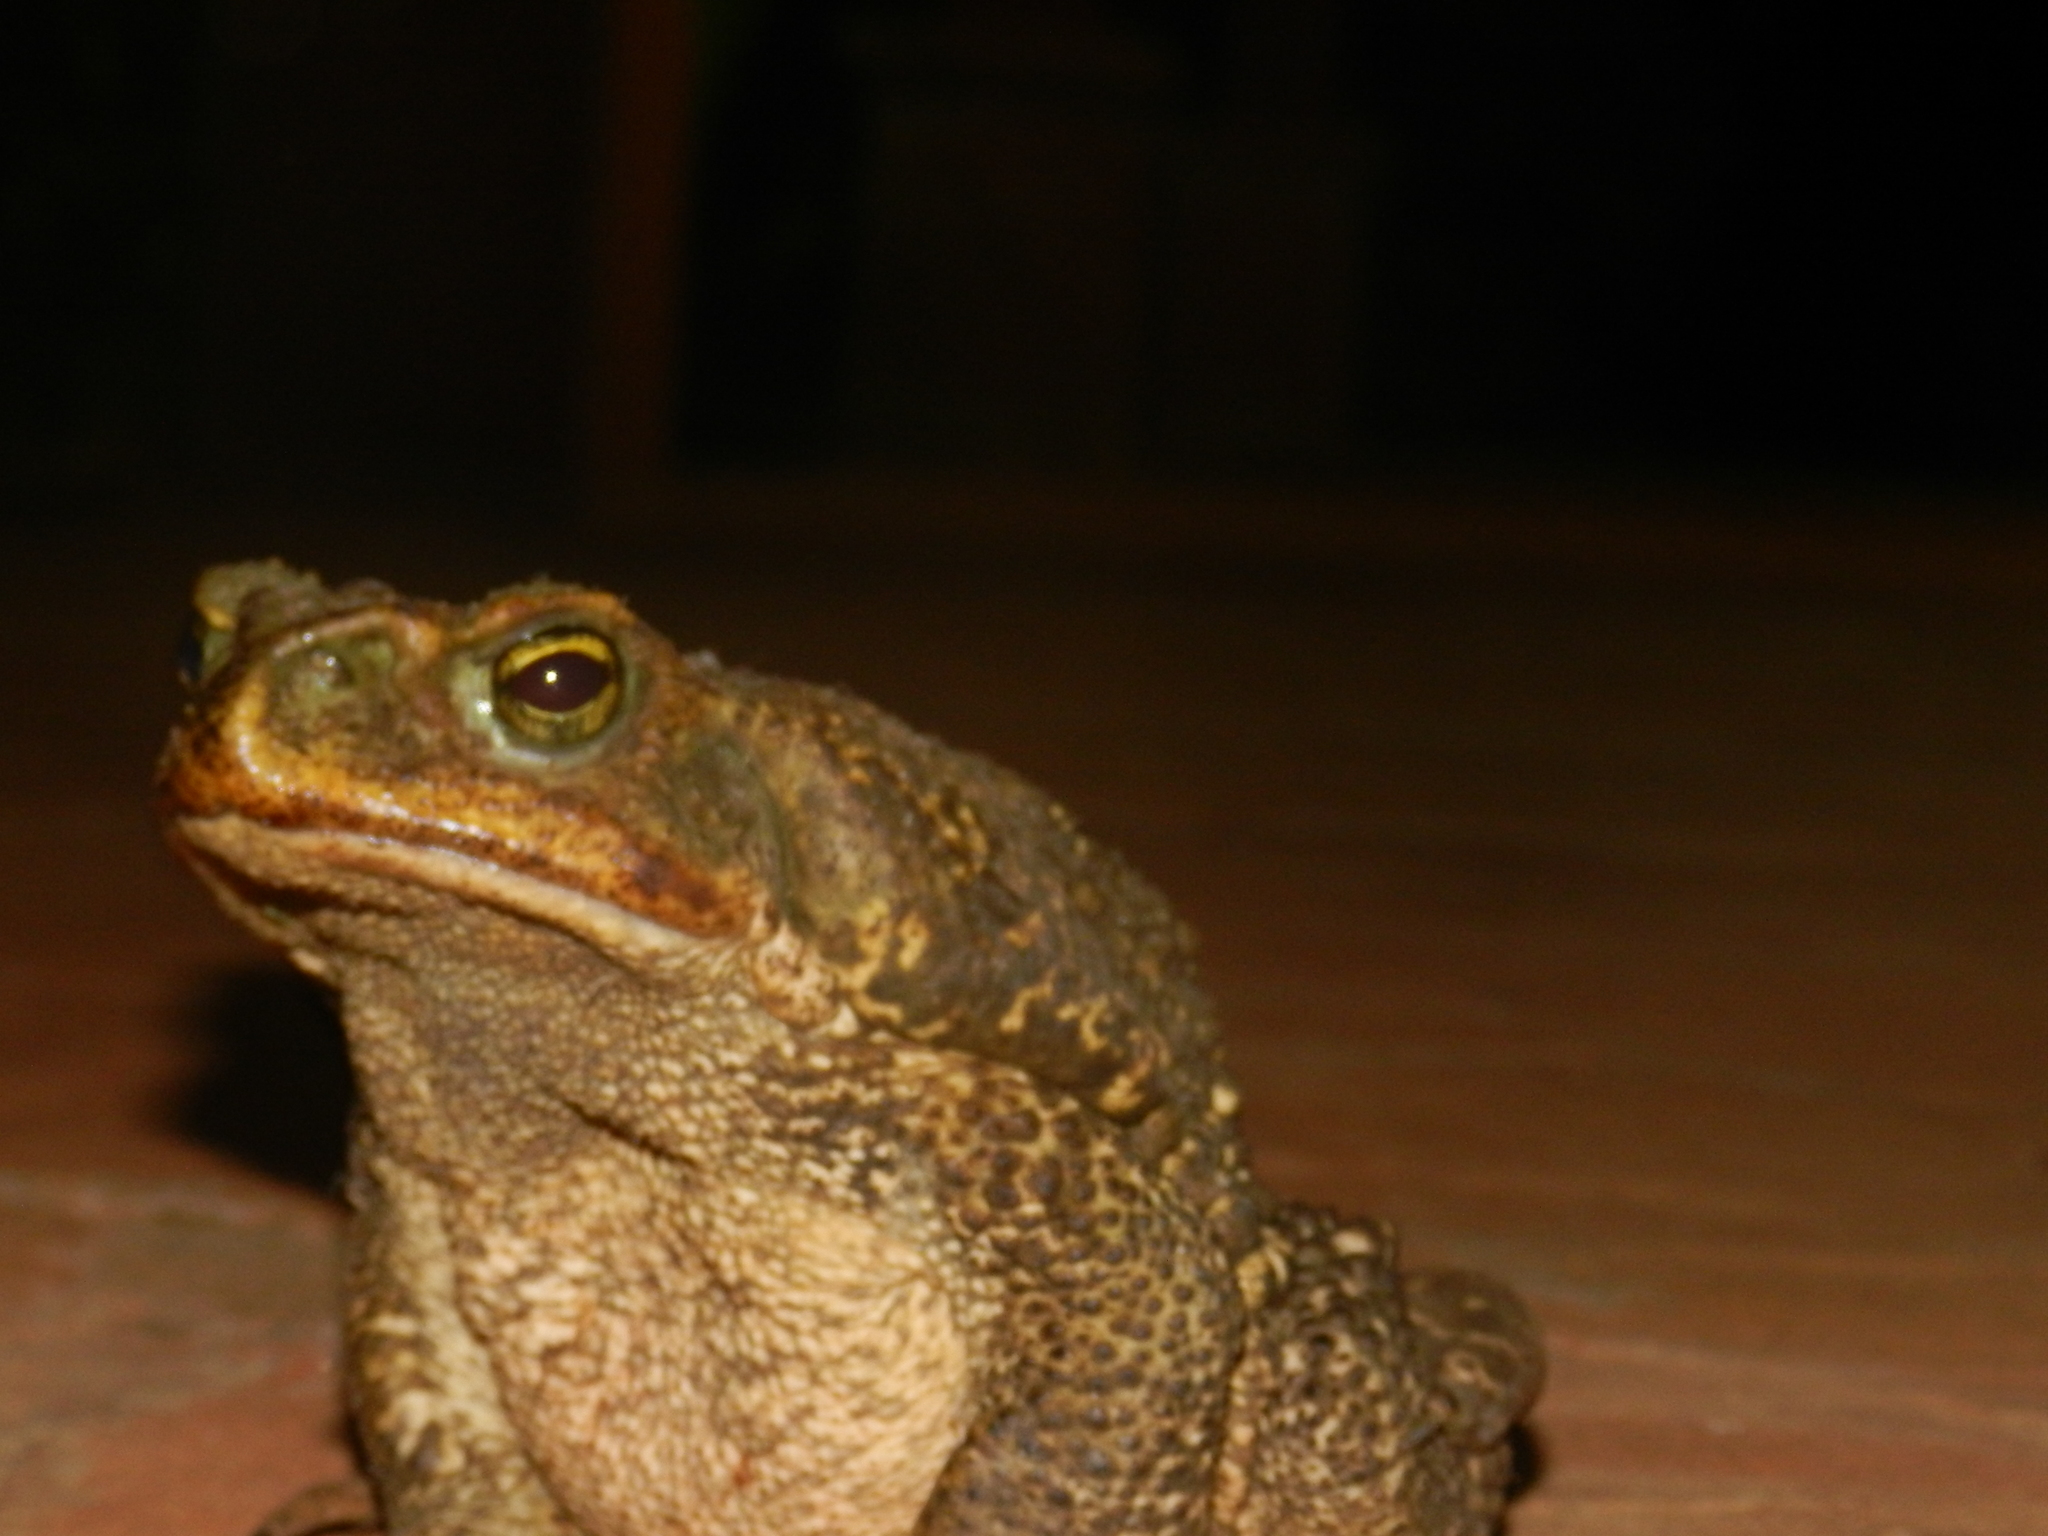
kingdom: Animalia
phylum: Chordata
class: Amphibia
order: Anura
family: Bufonidae
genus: Rhinella
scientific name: Rhinella diptycha
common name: Cope's toad
